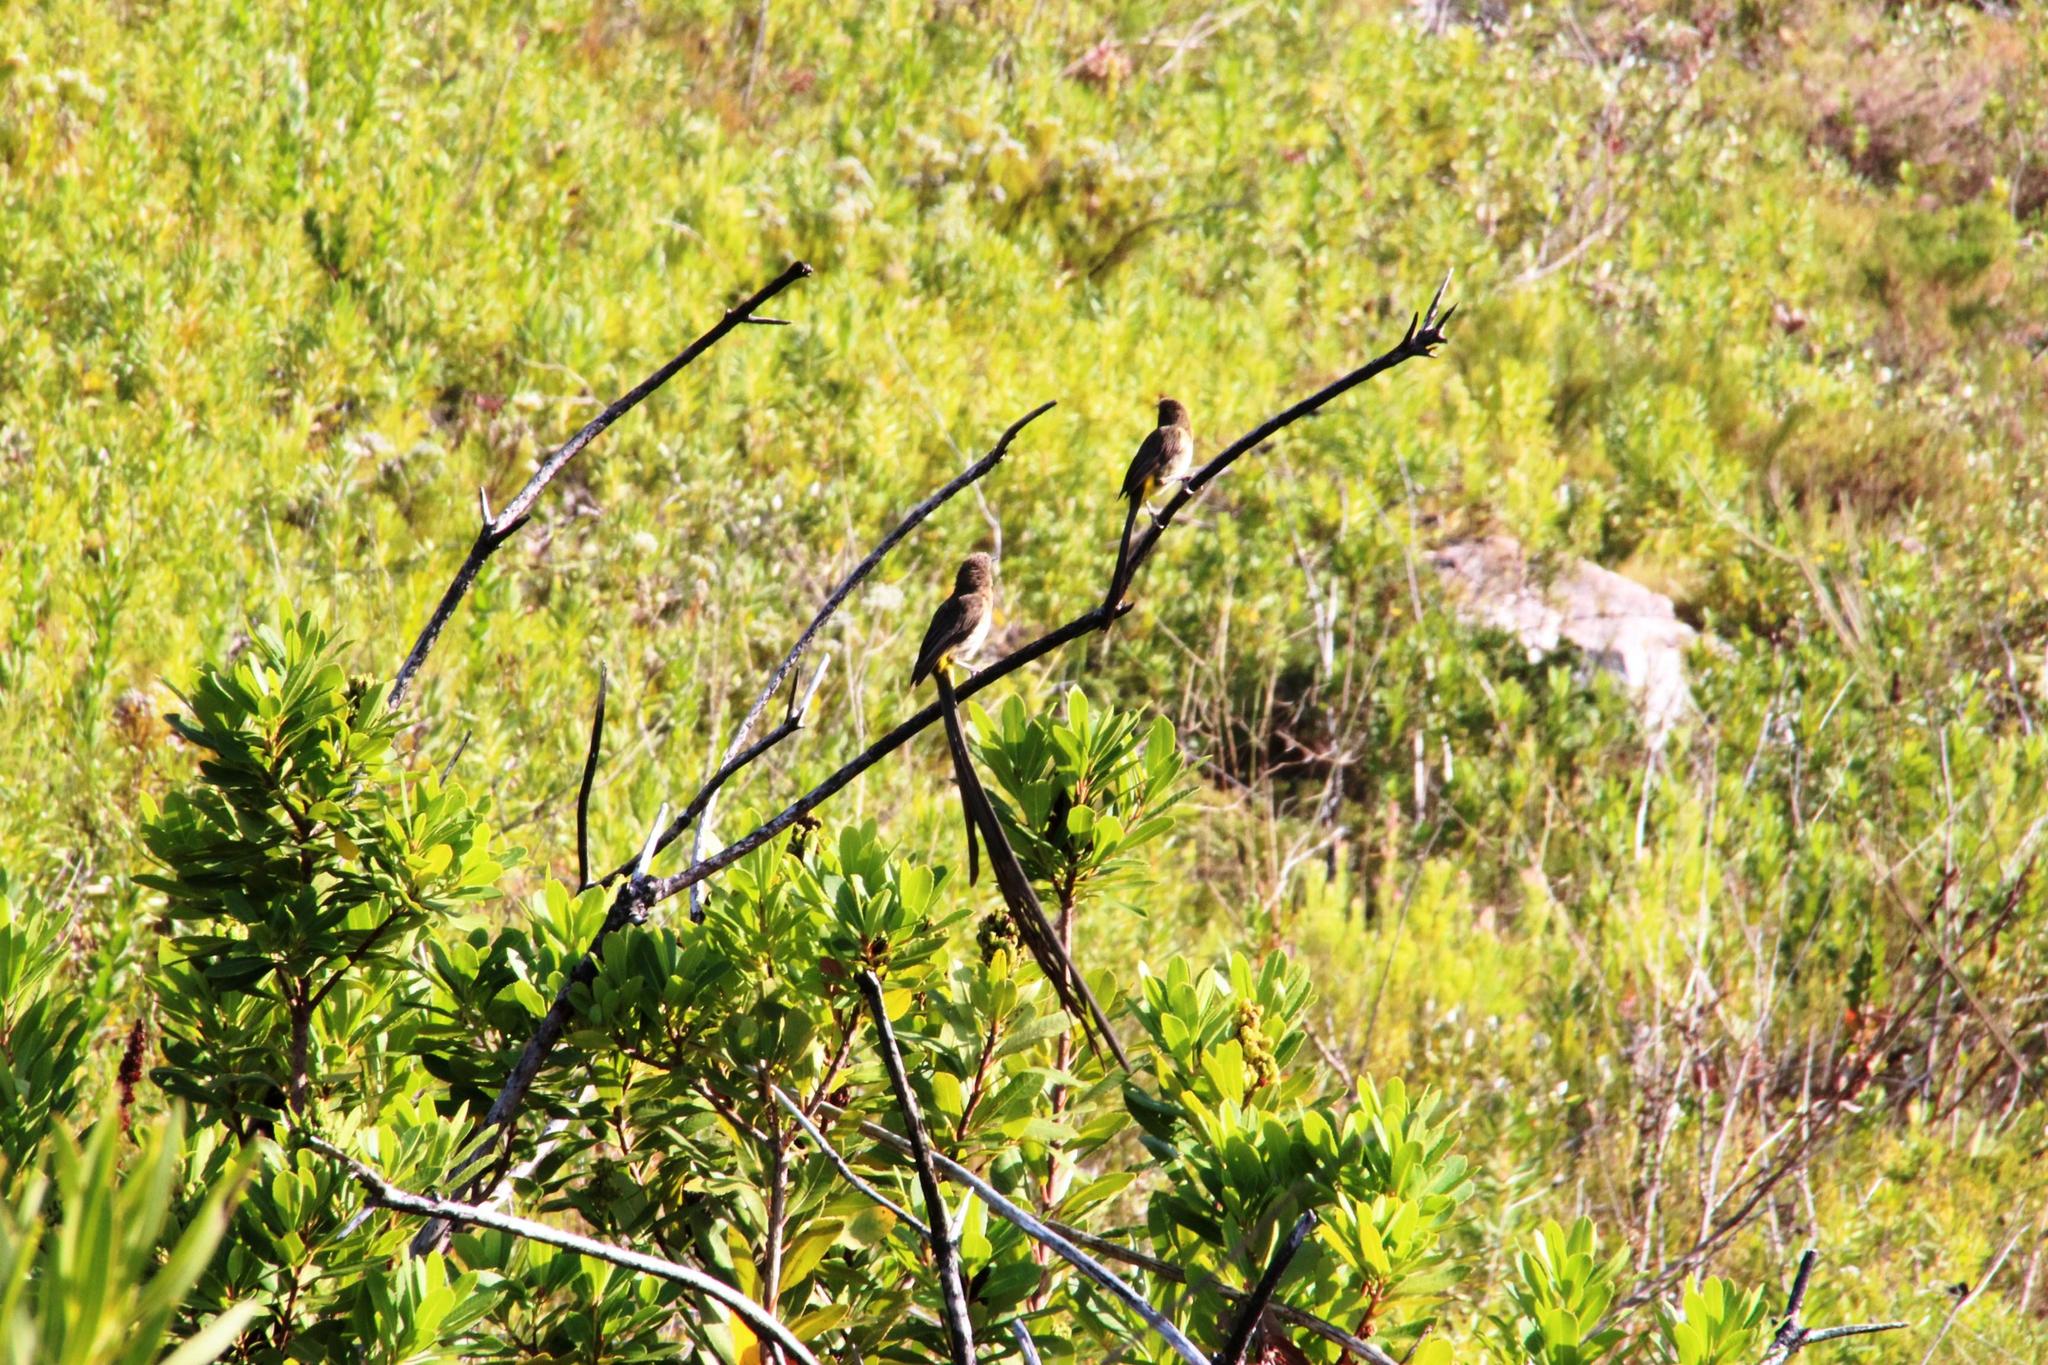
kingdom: Animalia
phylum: Chordata
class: Aves
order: Passeriformes
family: Promeropidae
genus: Promerops
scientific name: Promerops cafer
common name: Cape sugarbird
